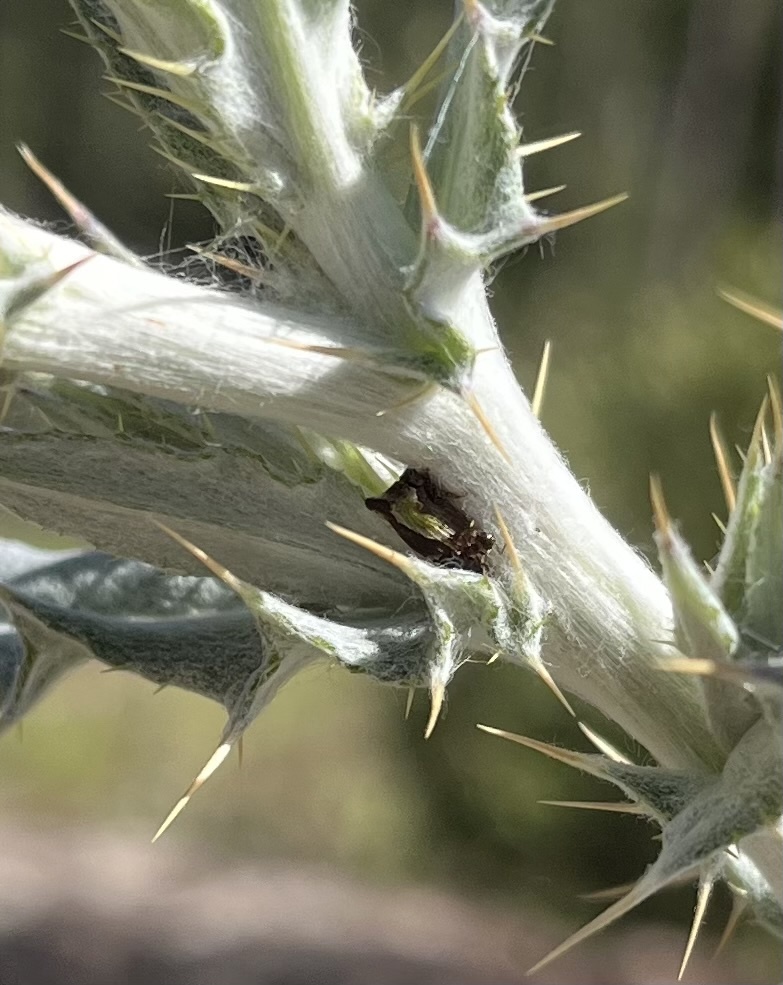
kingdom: Animalia
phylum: Arthropoda
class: Insecta
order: Hemiptera
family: Membracidae
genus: Publilia
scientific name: Publilia porrecta
